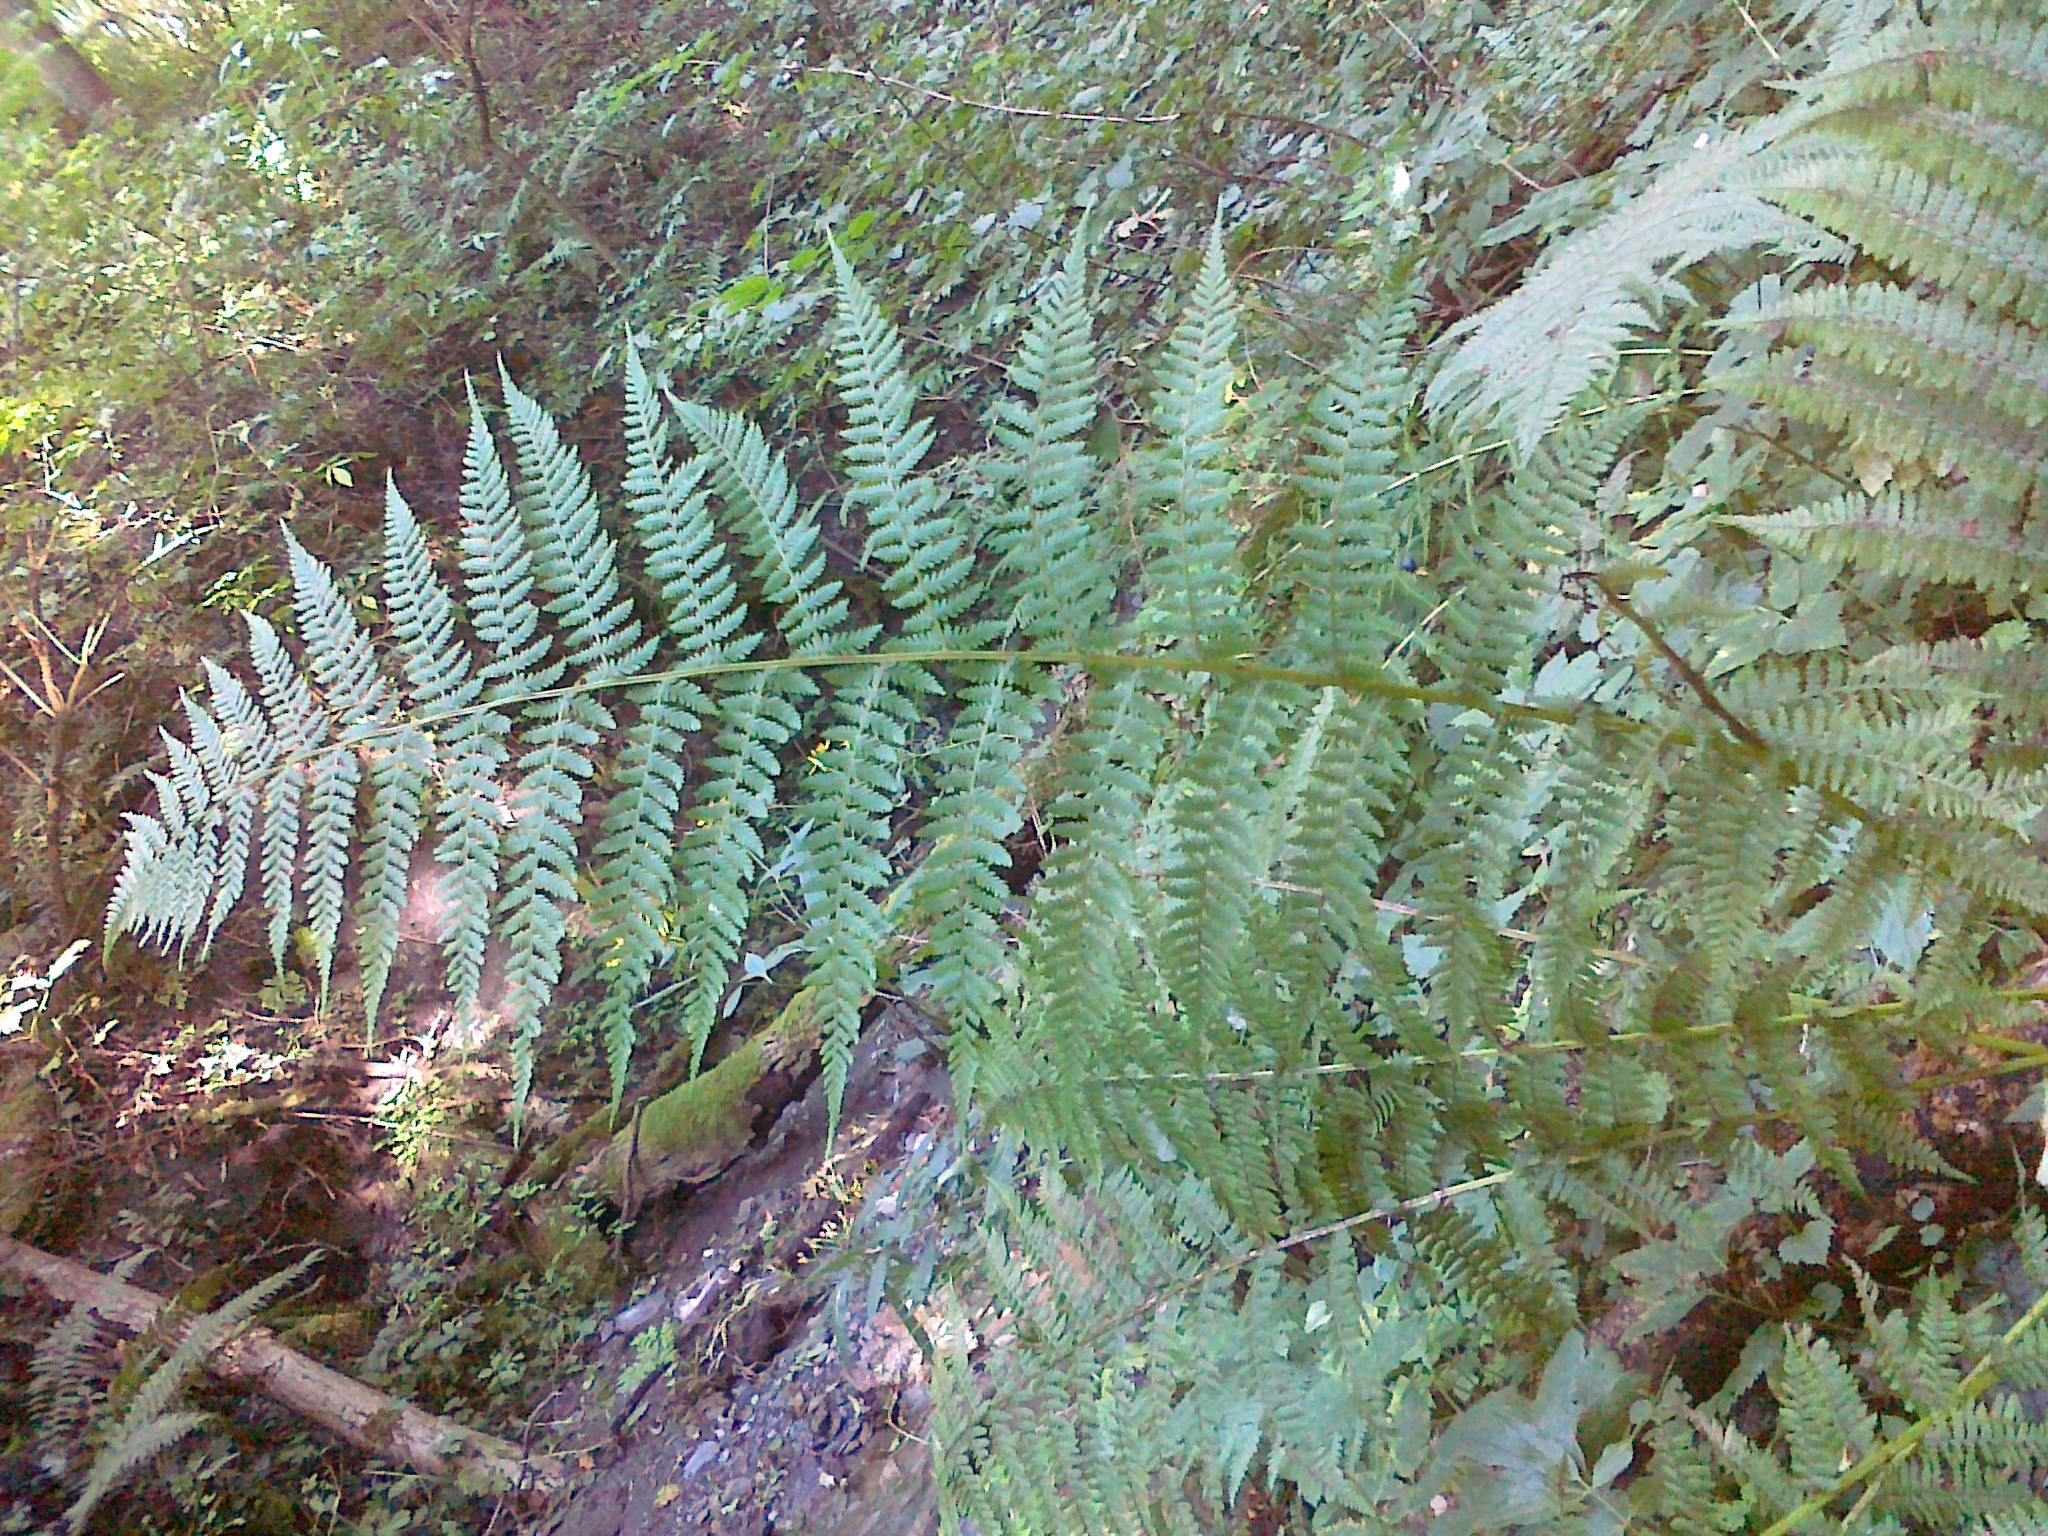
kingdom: Plantae
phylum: Tracheophyta
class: Polypodiopsida
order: Polypodiales
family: Athyriaceae
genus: Athyrium
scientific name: Athyrium filix-femina
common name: Lady fern
